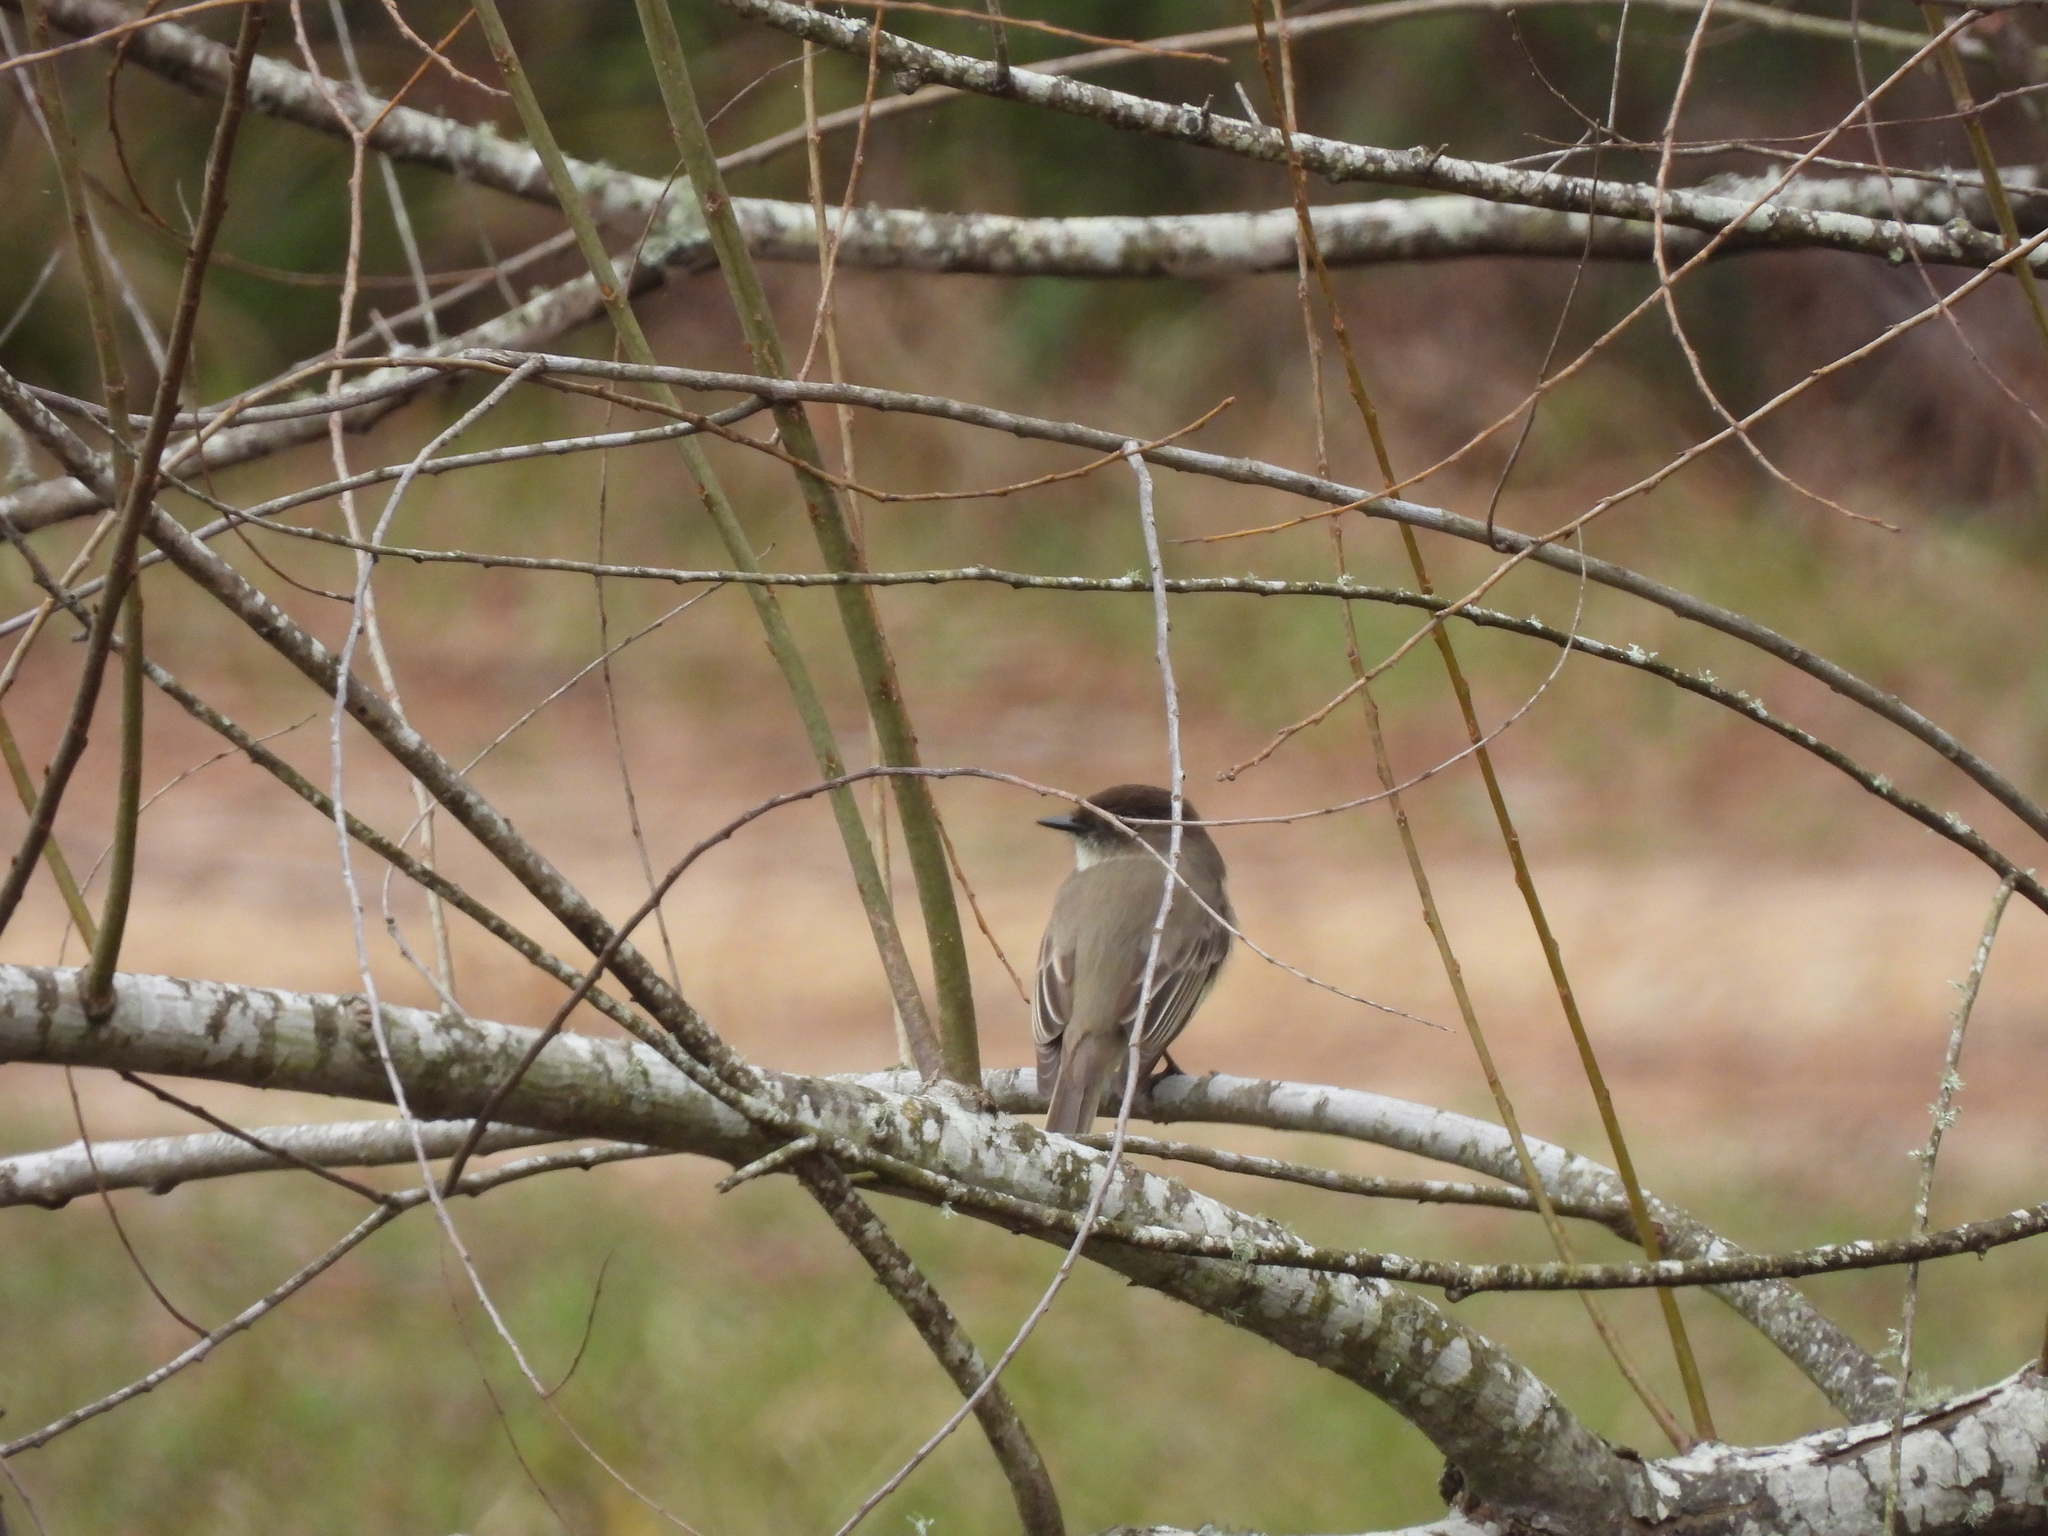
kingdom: Animalia
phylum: Chordata
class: Aves
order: Passeriformes
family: Tyrannidae
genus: Sayornis
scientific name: Sayornis phoebe
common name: Eastern phoebe
